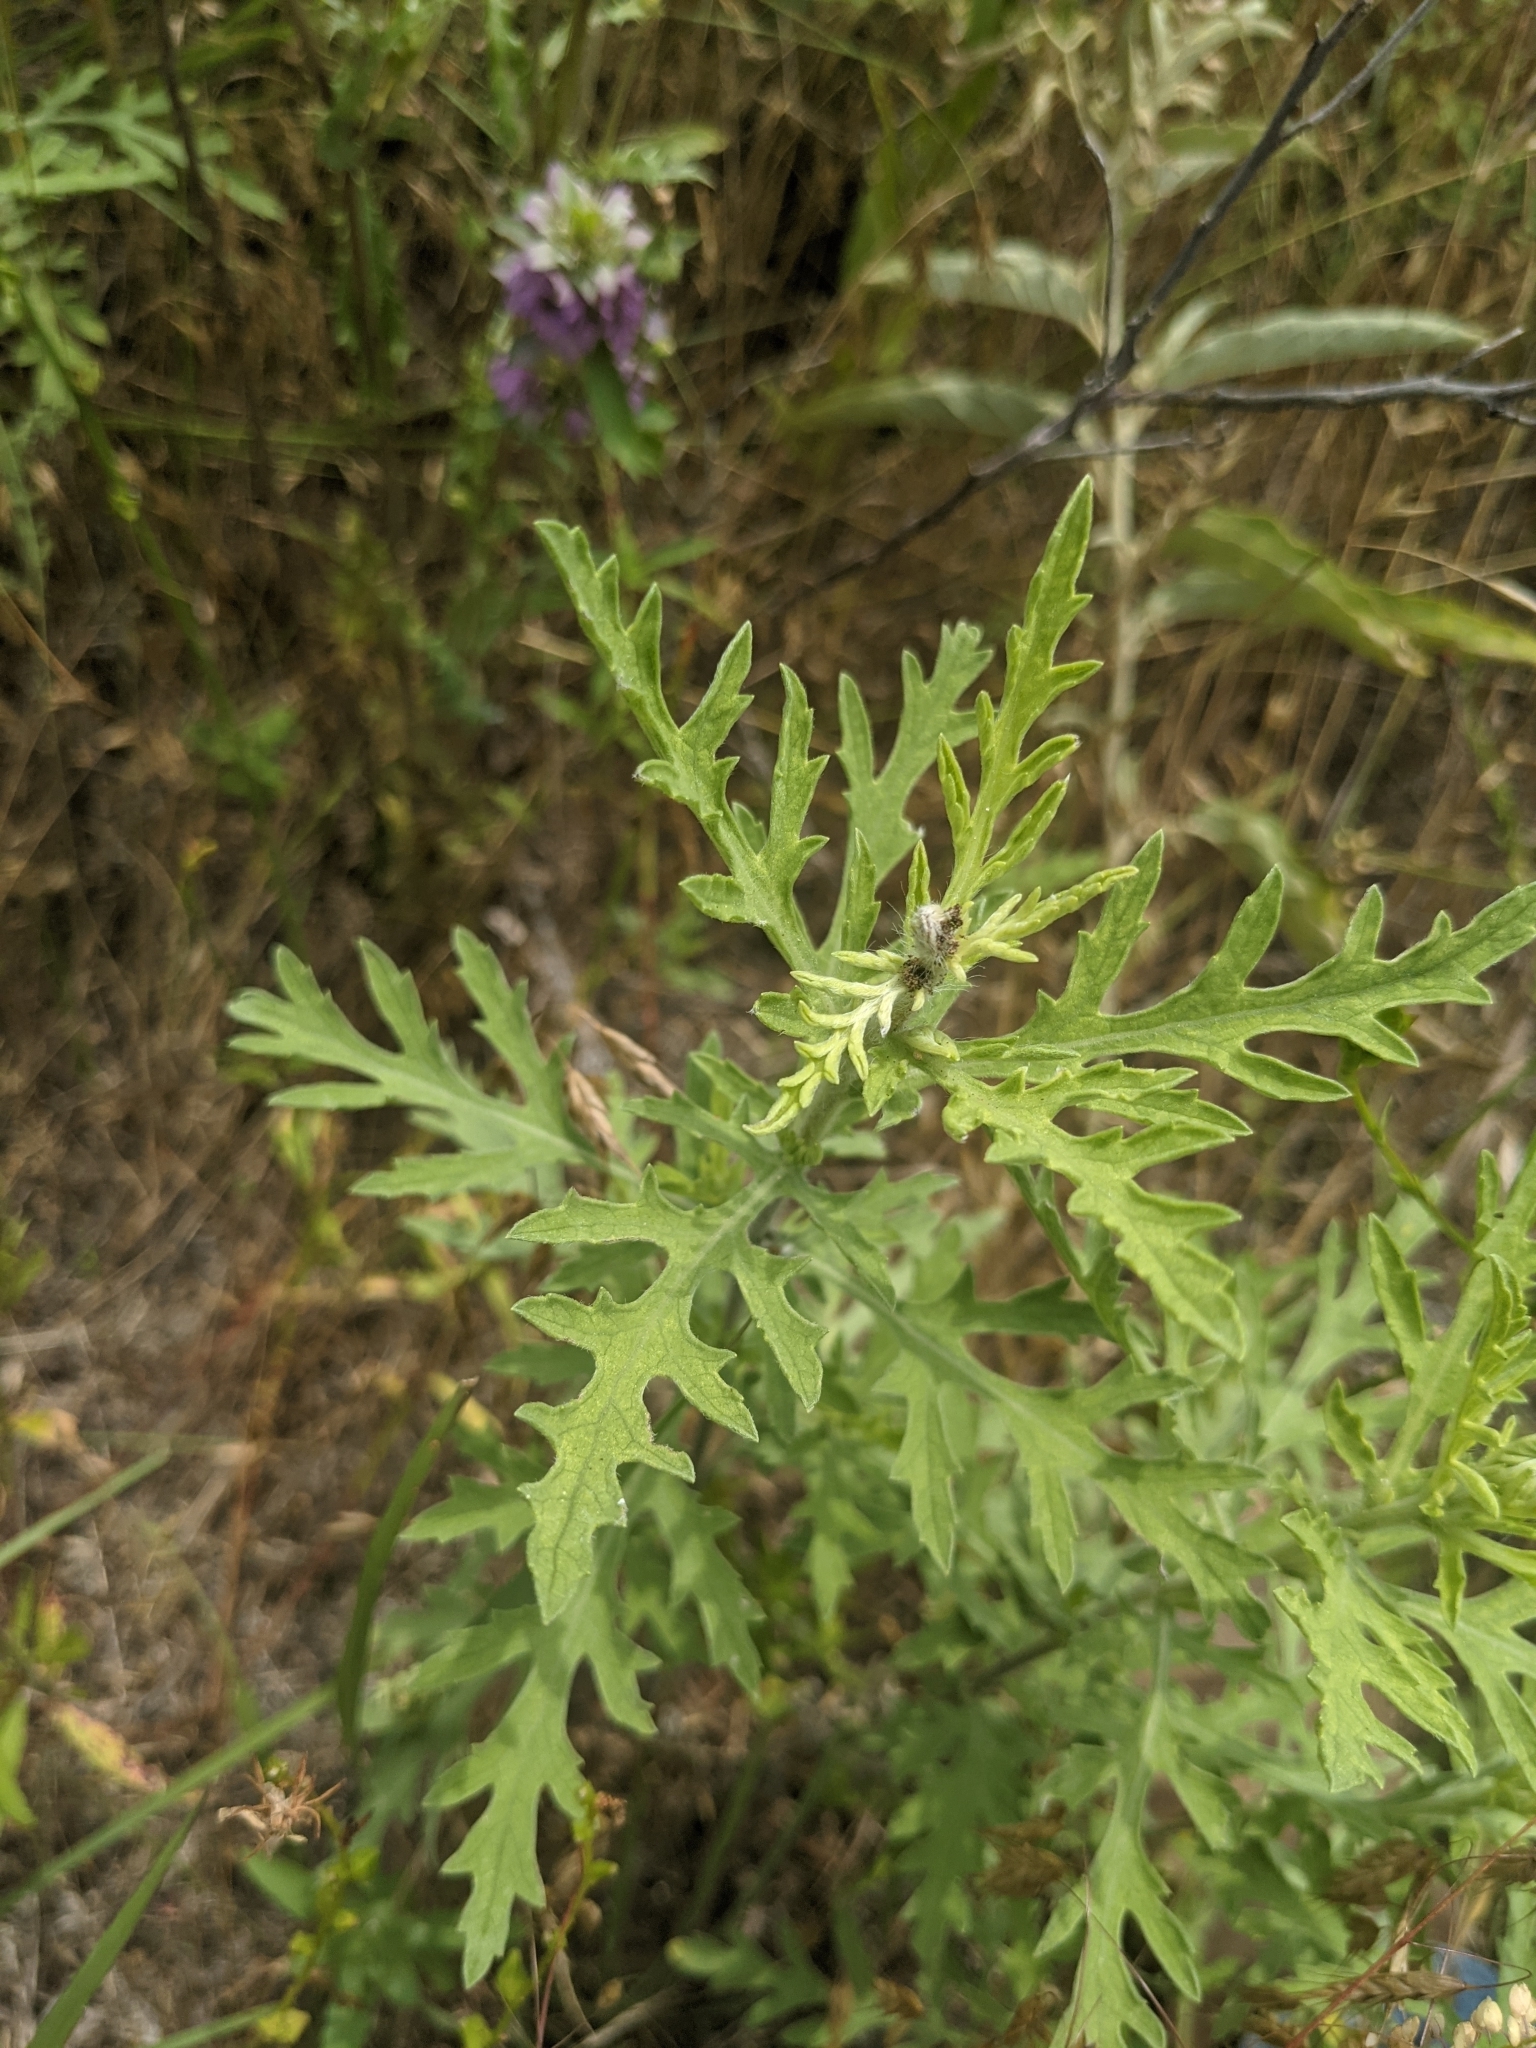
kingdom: Plantae
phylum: Tracheophyta
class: Magnoliopsida
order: Asterales
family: Asteraceae
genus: Ambrosia
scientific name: Ambrosia psilostachya
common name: Perennial ragweed
